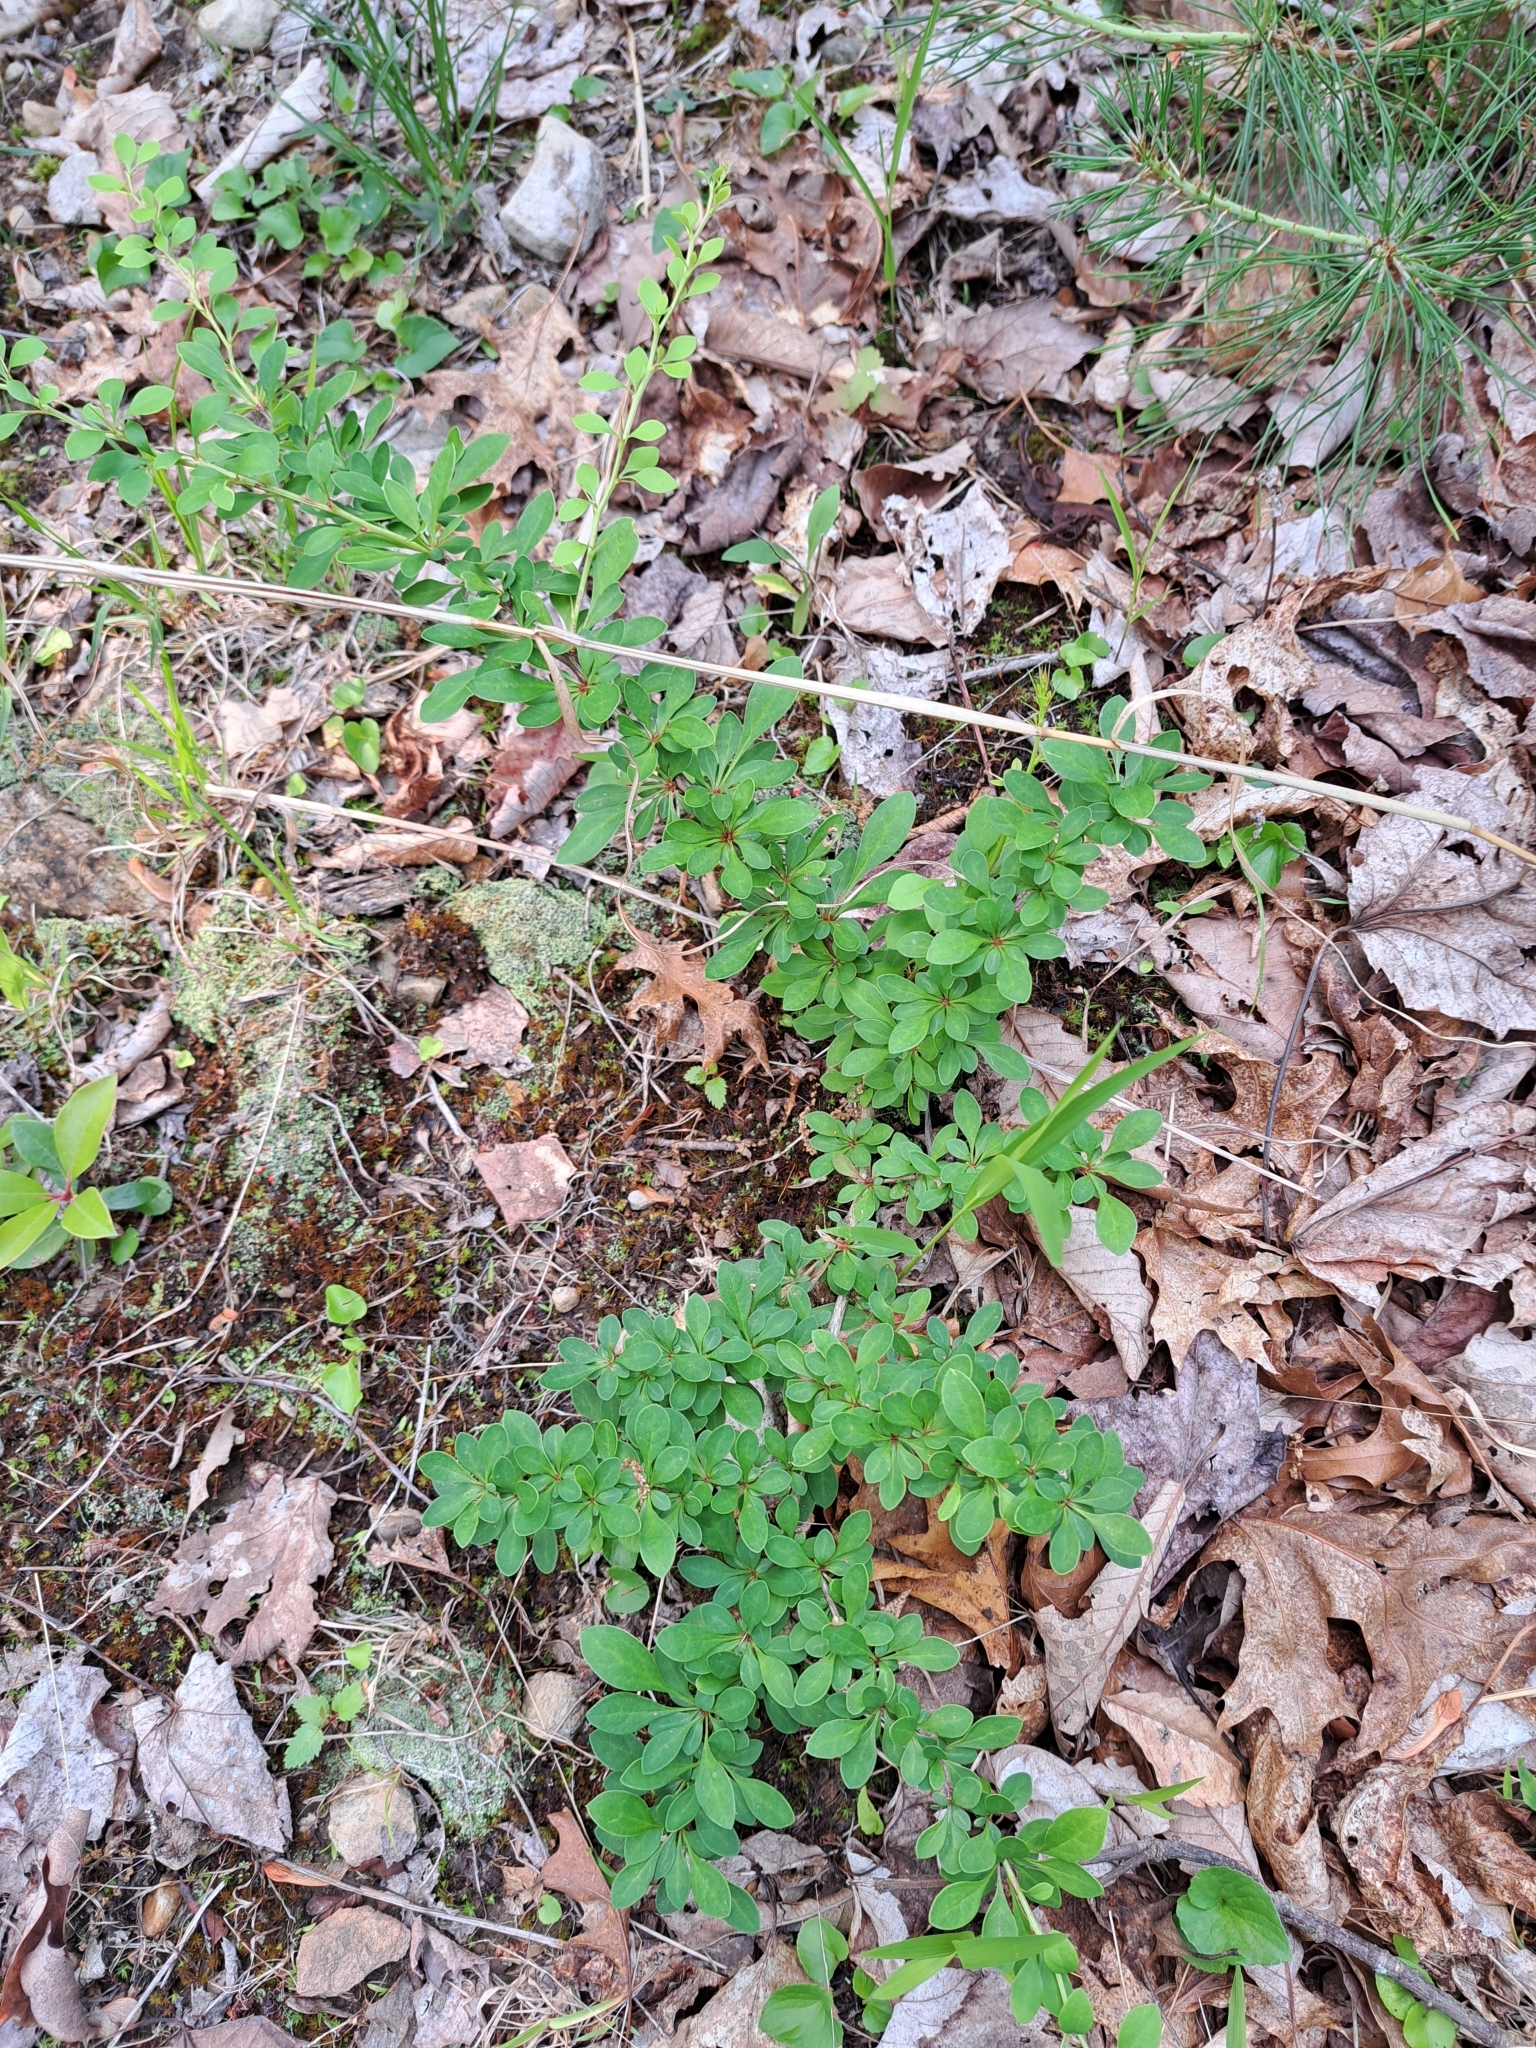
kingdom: Plantae
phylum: Tracheophyta
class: Magnoliopsida
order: Ranunculales
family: Berberidaceae
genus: Berberis
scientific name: Berberis thunbergii
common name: Japanese barberry
